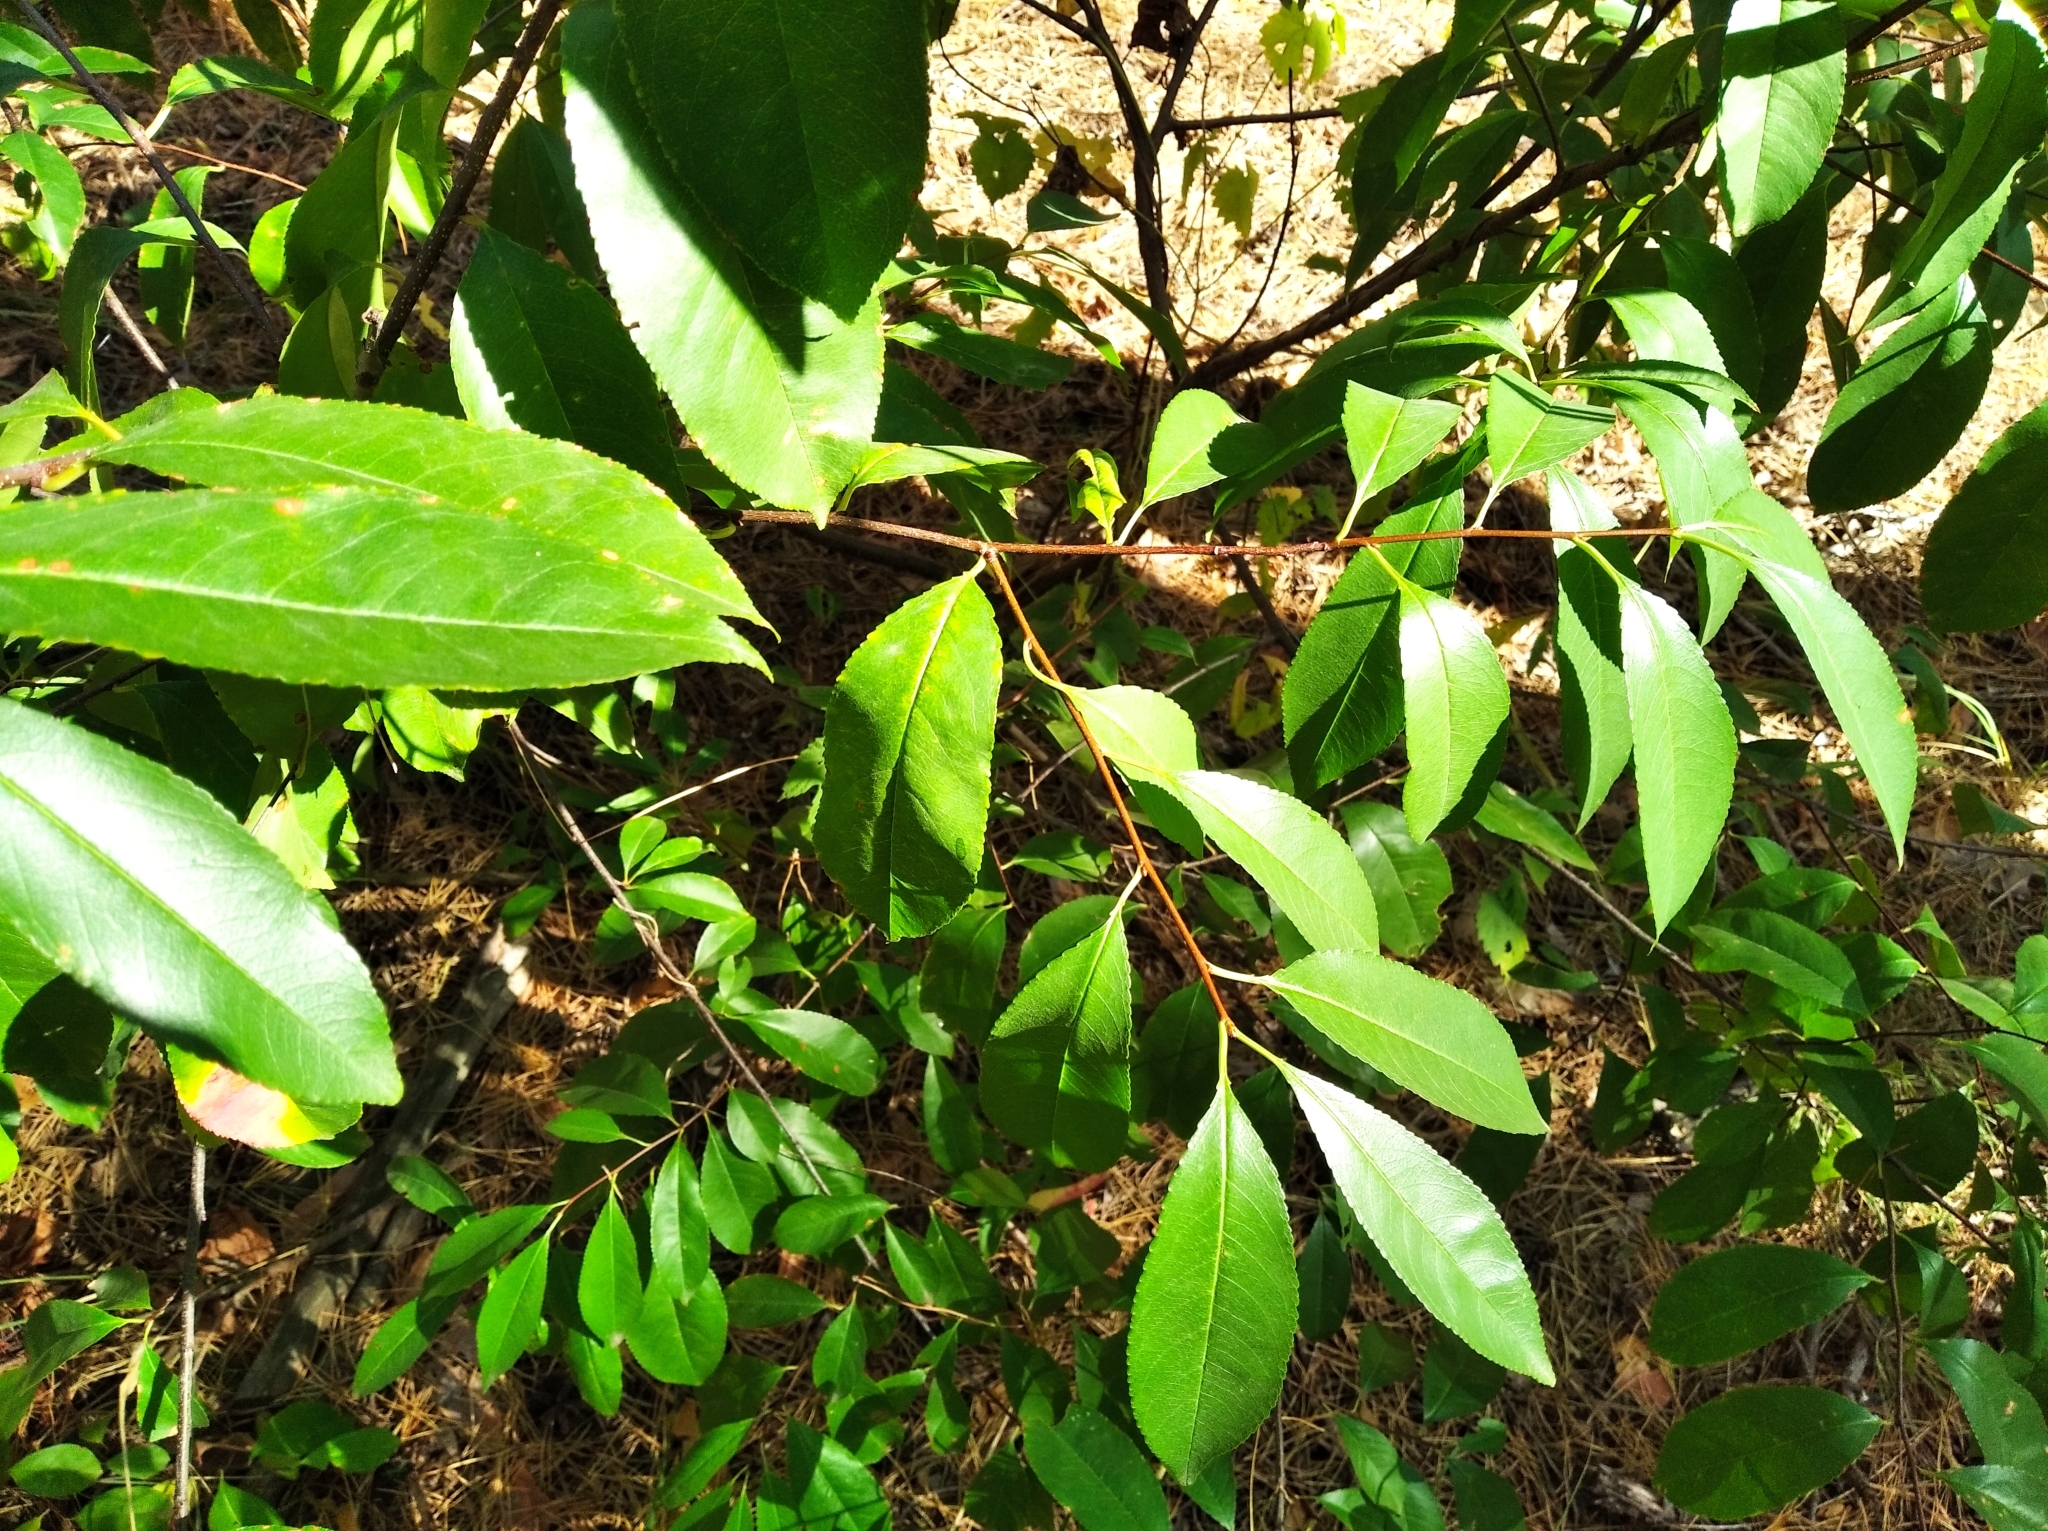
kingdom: Plantae
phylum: Tracheophyta
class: Magnoliopsida
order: Rosales
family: Rosaceae
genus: Prunus
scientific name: Prunus serotina
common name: Black cherry
